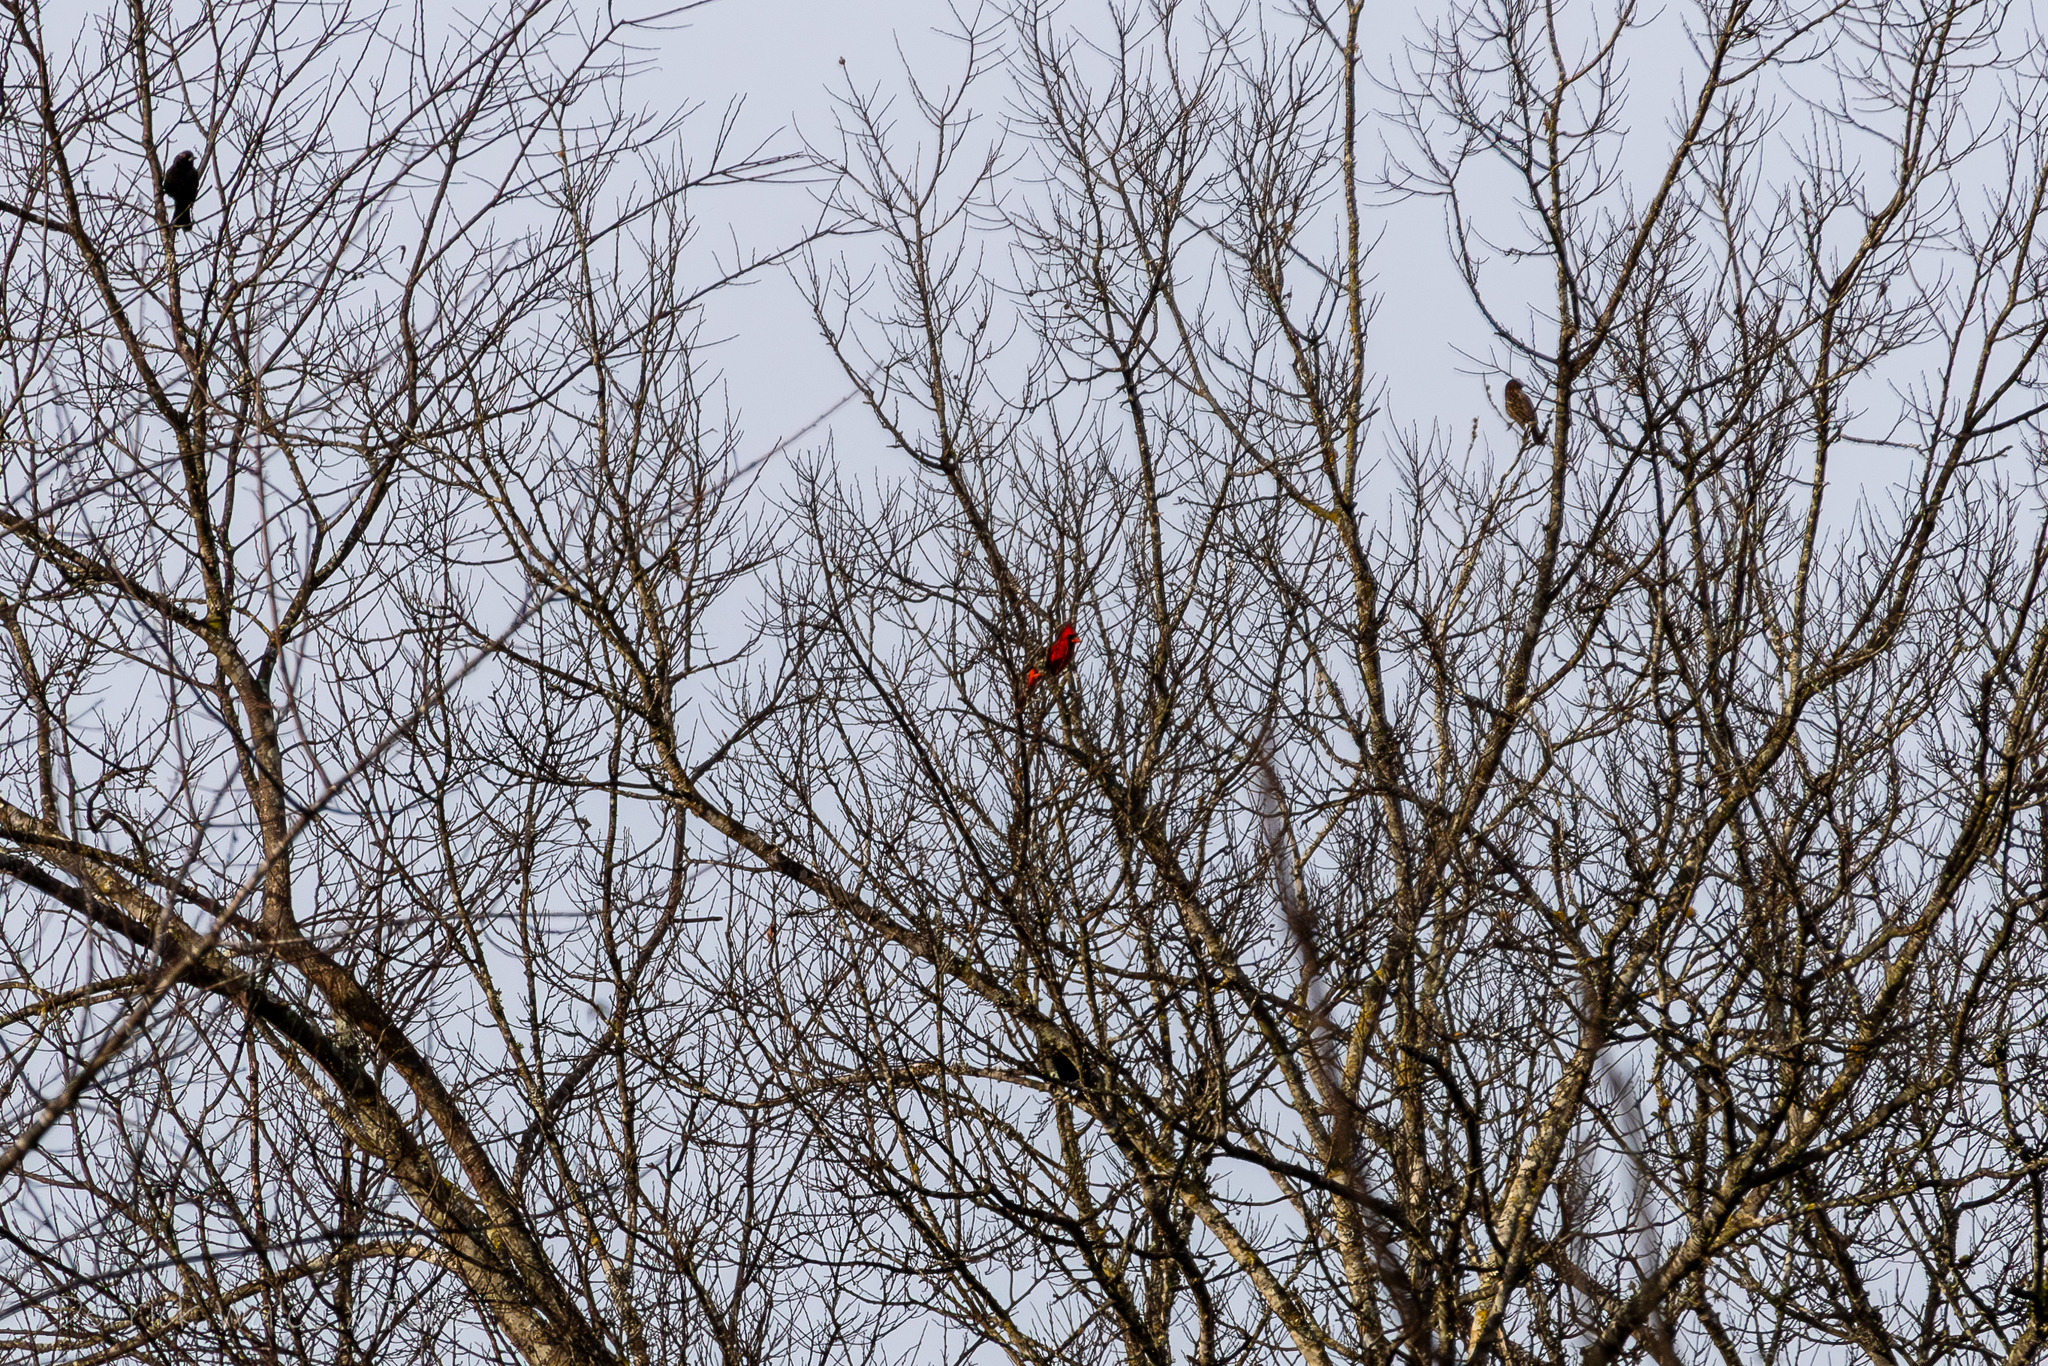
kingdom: Animalia
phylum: Chordata
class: Aves
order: Passeriformes
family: Cardinalidae
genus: Cardinalis
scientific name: Cardinalis cardinalis
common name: Northern cardinal
